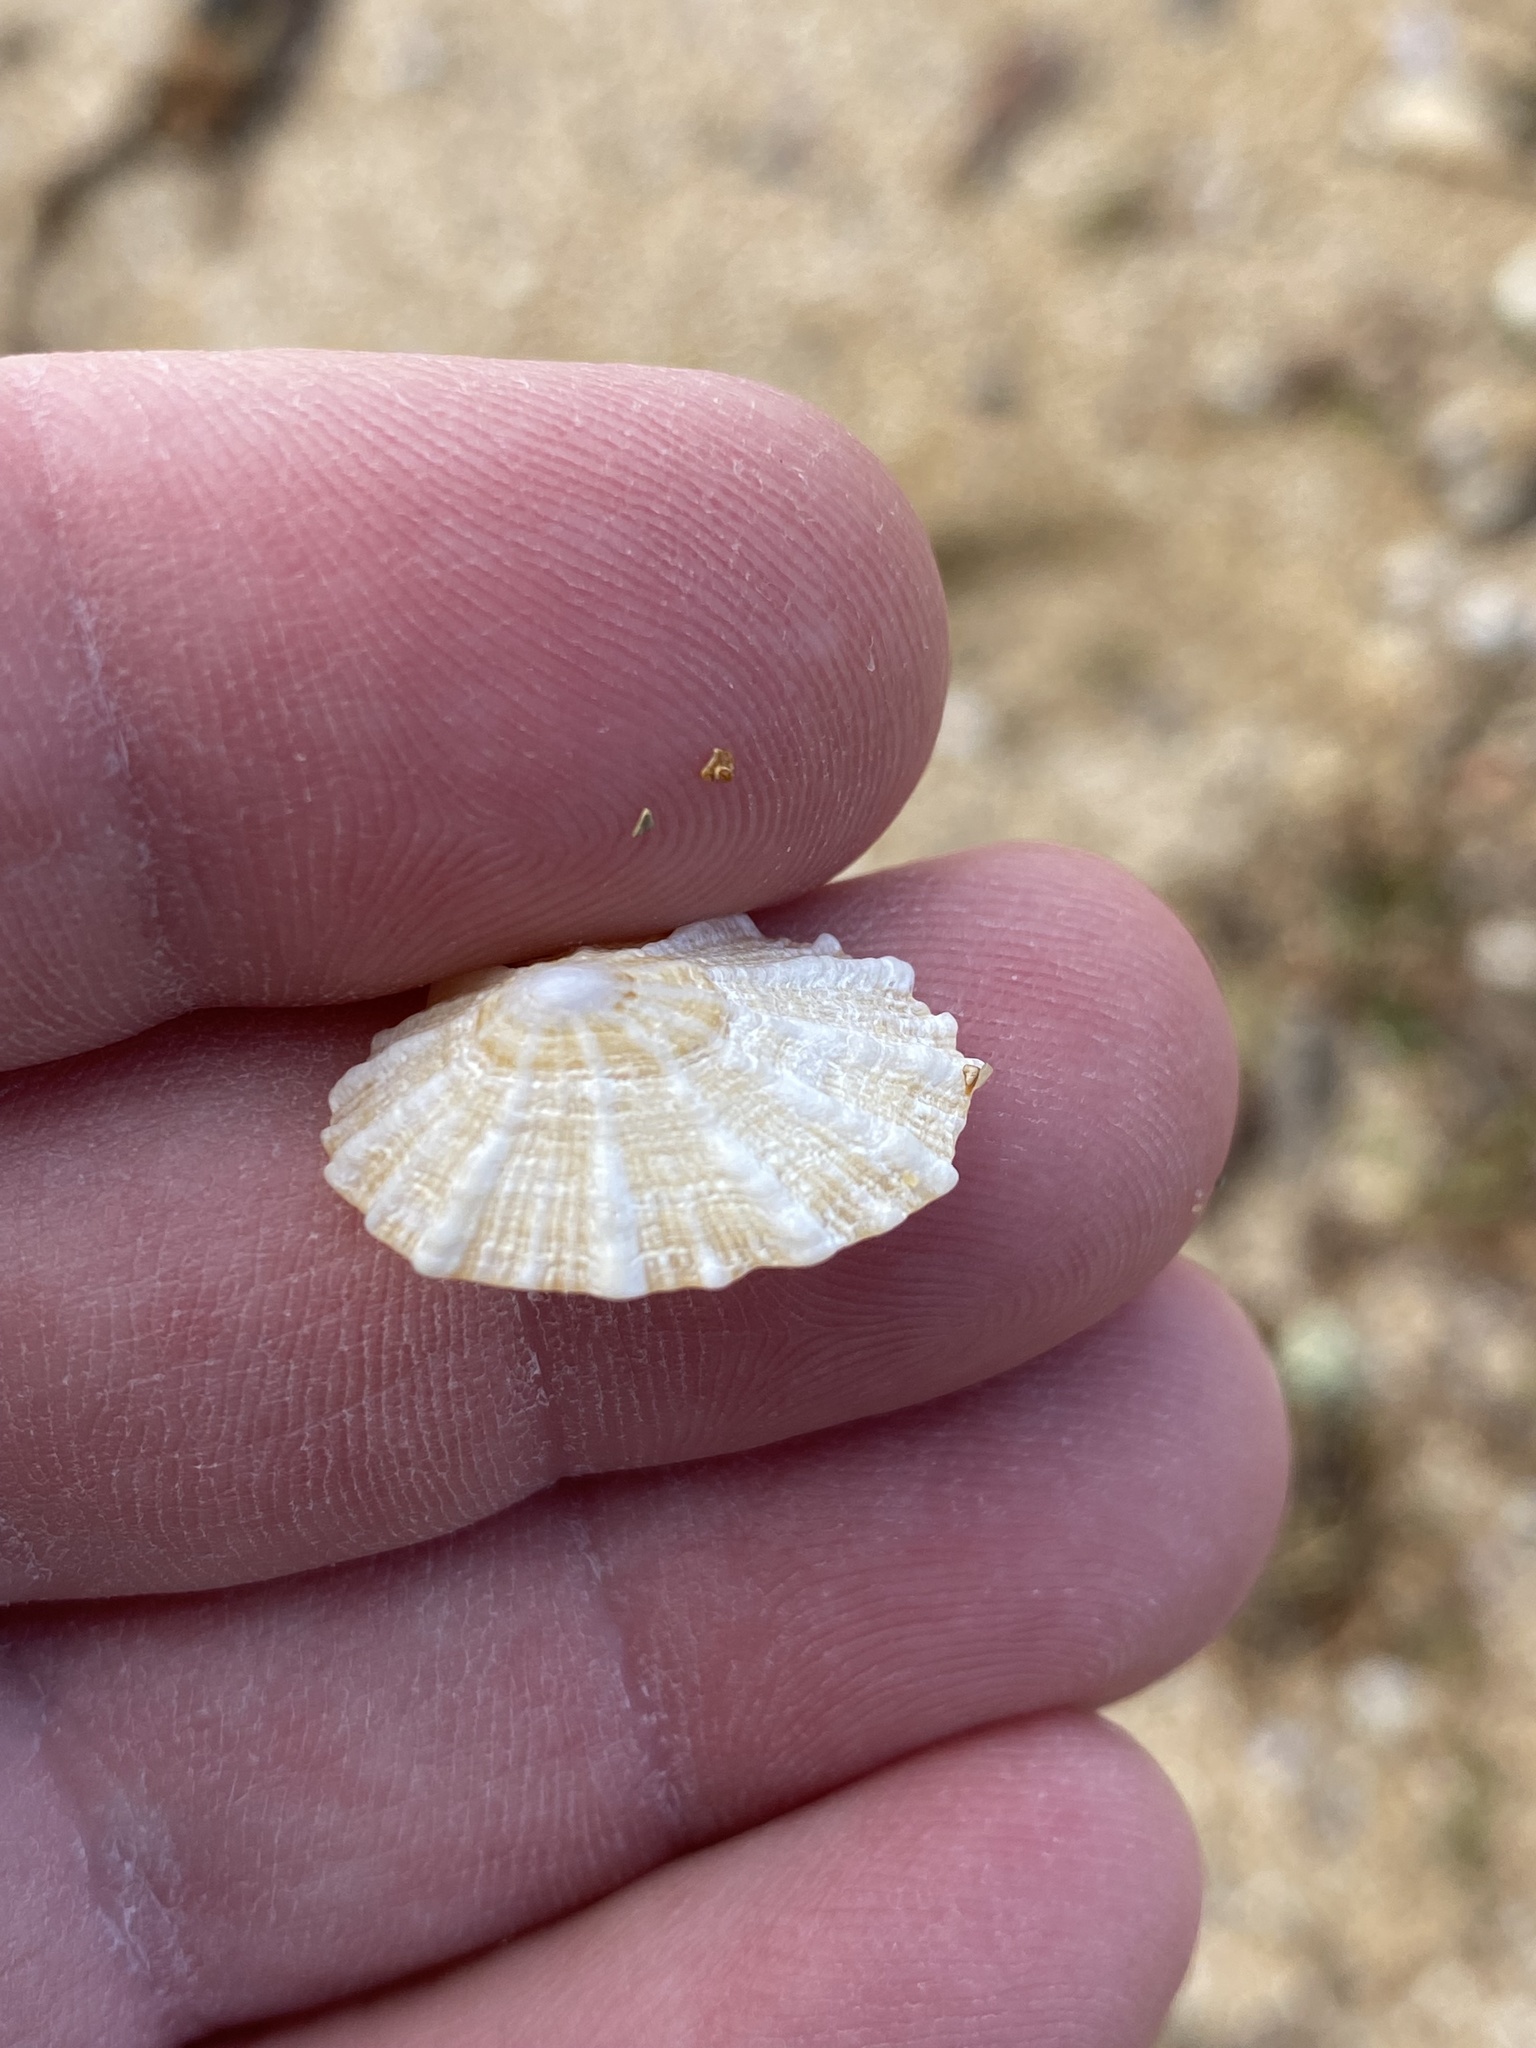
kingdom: Animalia
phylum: Mollusca
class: Gastropoda
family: Patellidae
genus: Scutellastra
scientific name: Scutellastra peronii
